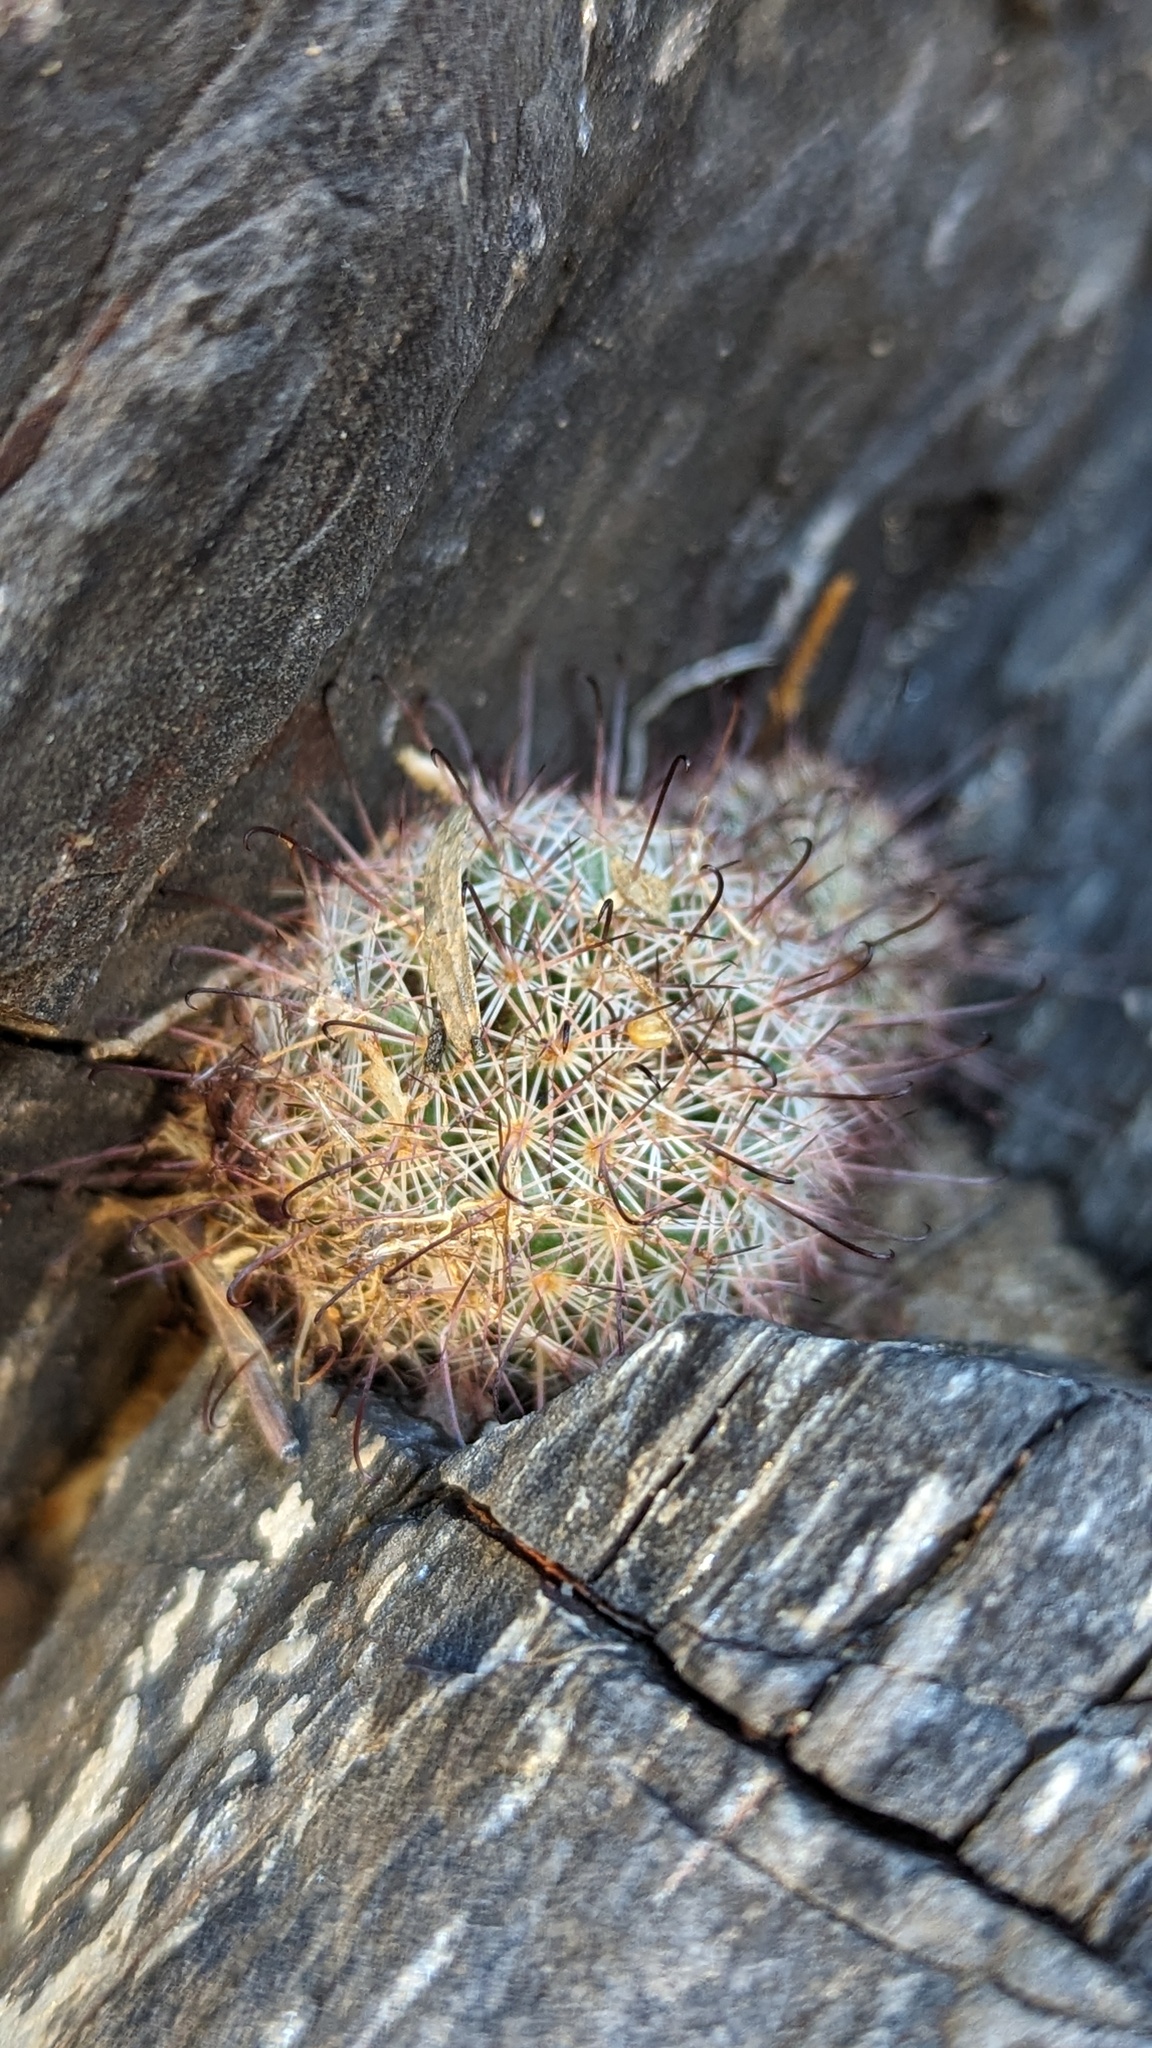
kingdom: Plantae
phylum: Tracheophyta
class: Magnoliopsida
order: Caryophyllales
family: Cactaceae
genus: Cochemiea
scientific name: Cochemiea dioica
